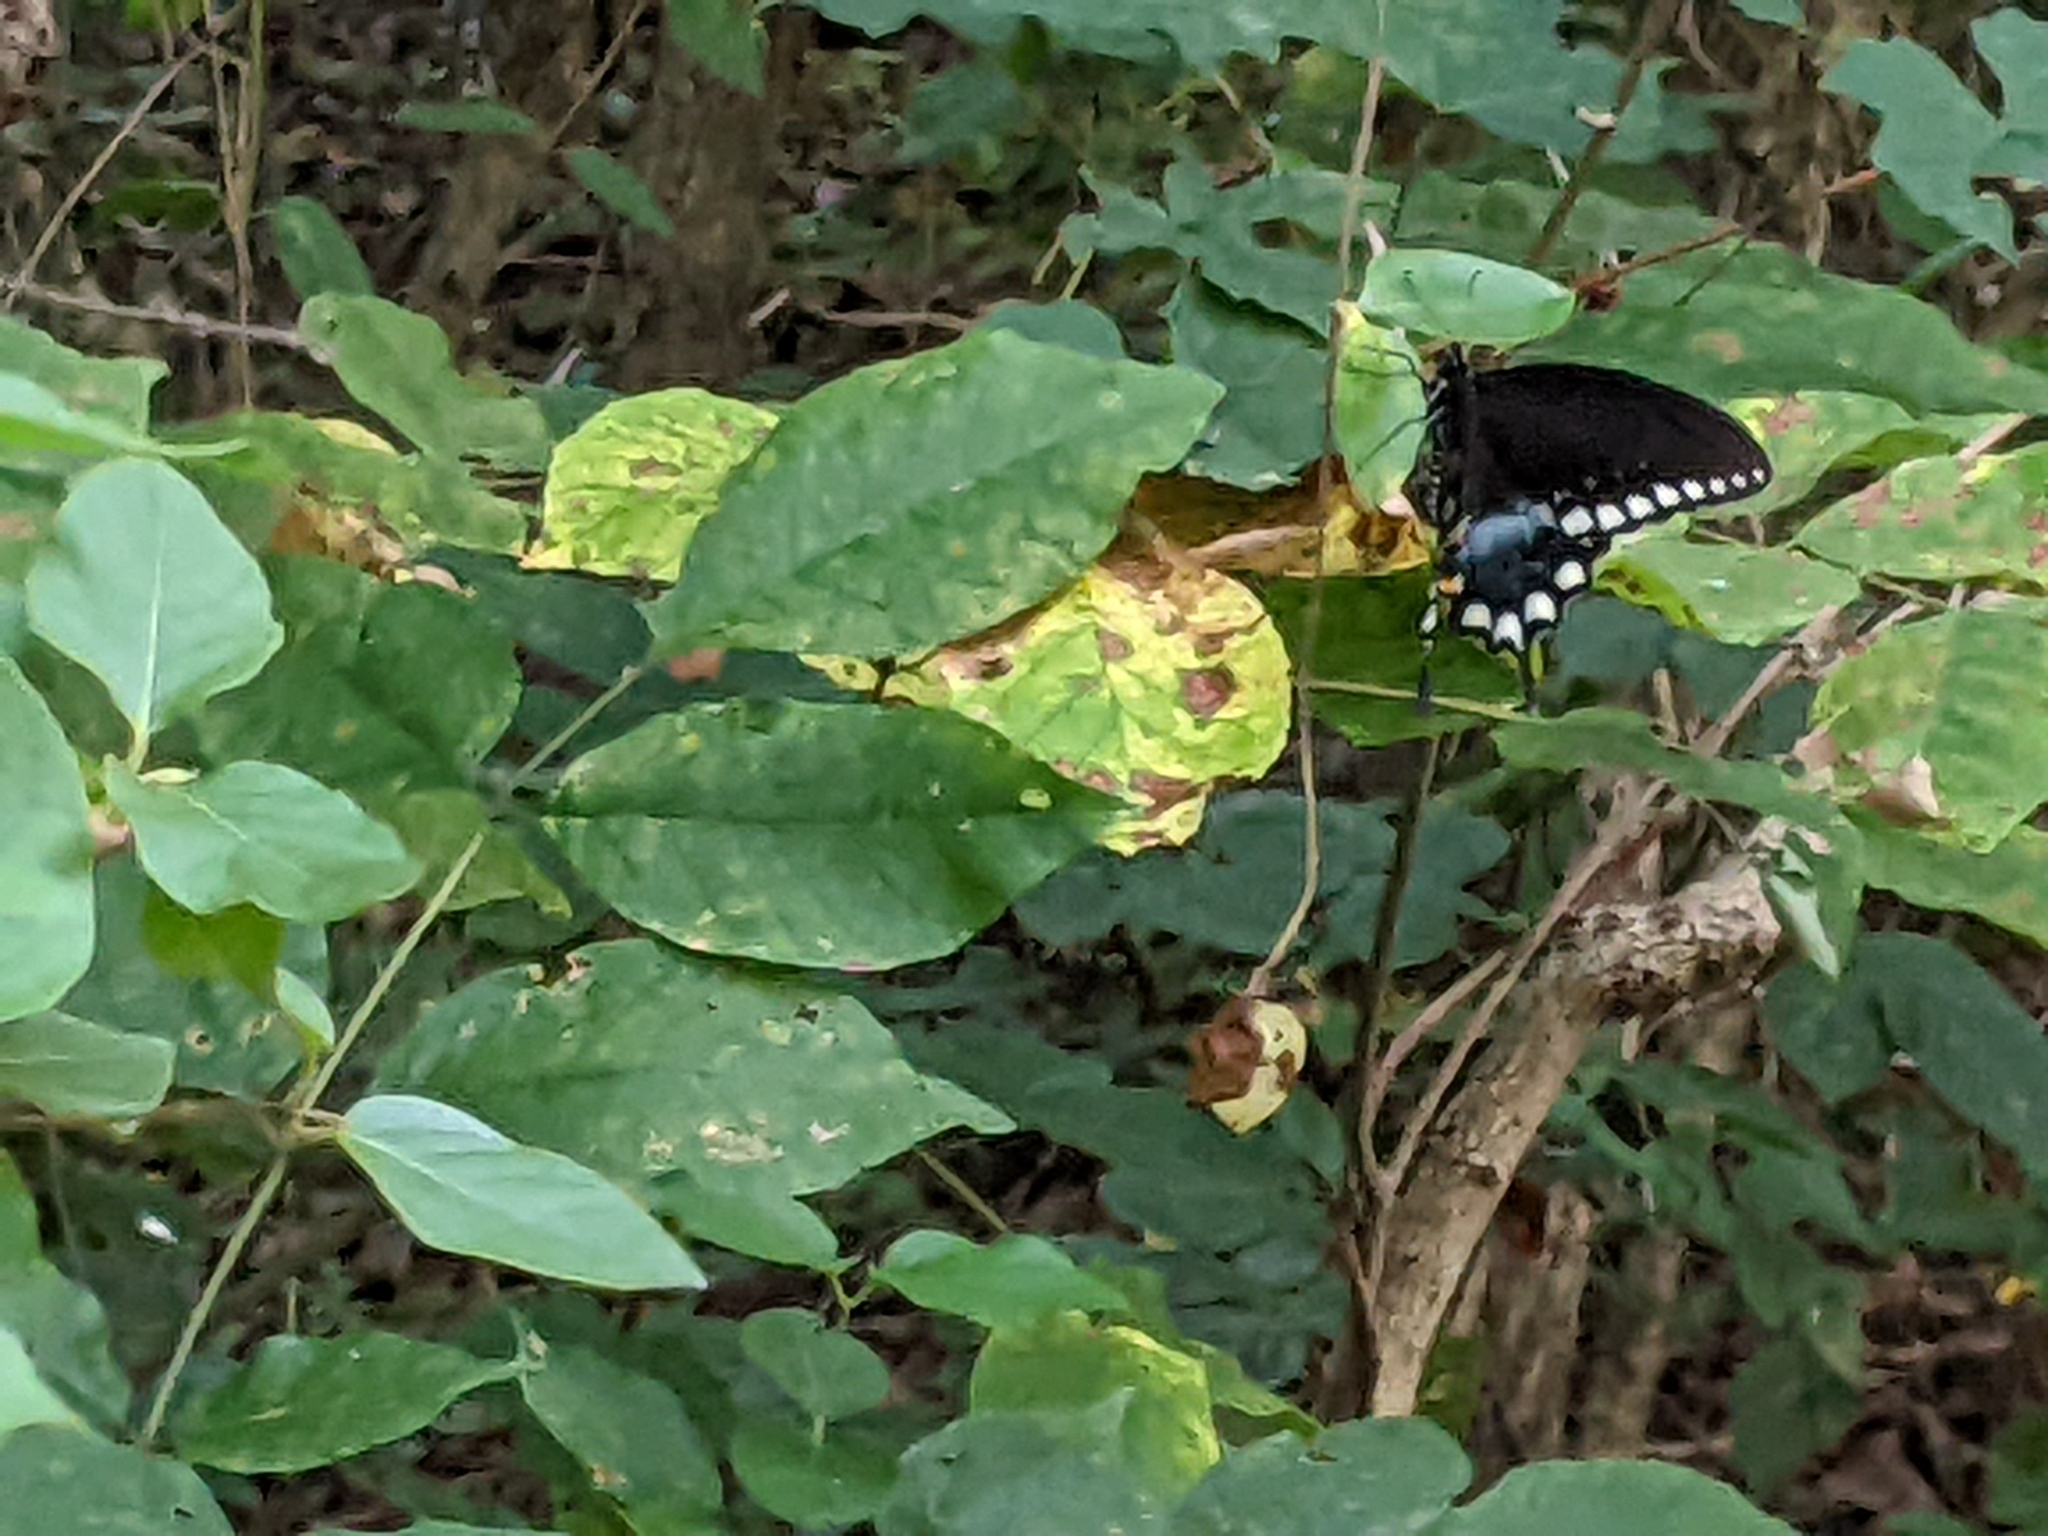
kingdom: Animalia
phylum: Arthropoda
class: Insecta
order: Lepidoptera
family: Papilionidae
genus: Papilio
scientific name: Papilio troilus
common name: Spicebush swallowtail
